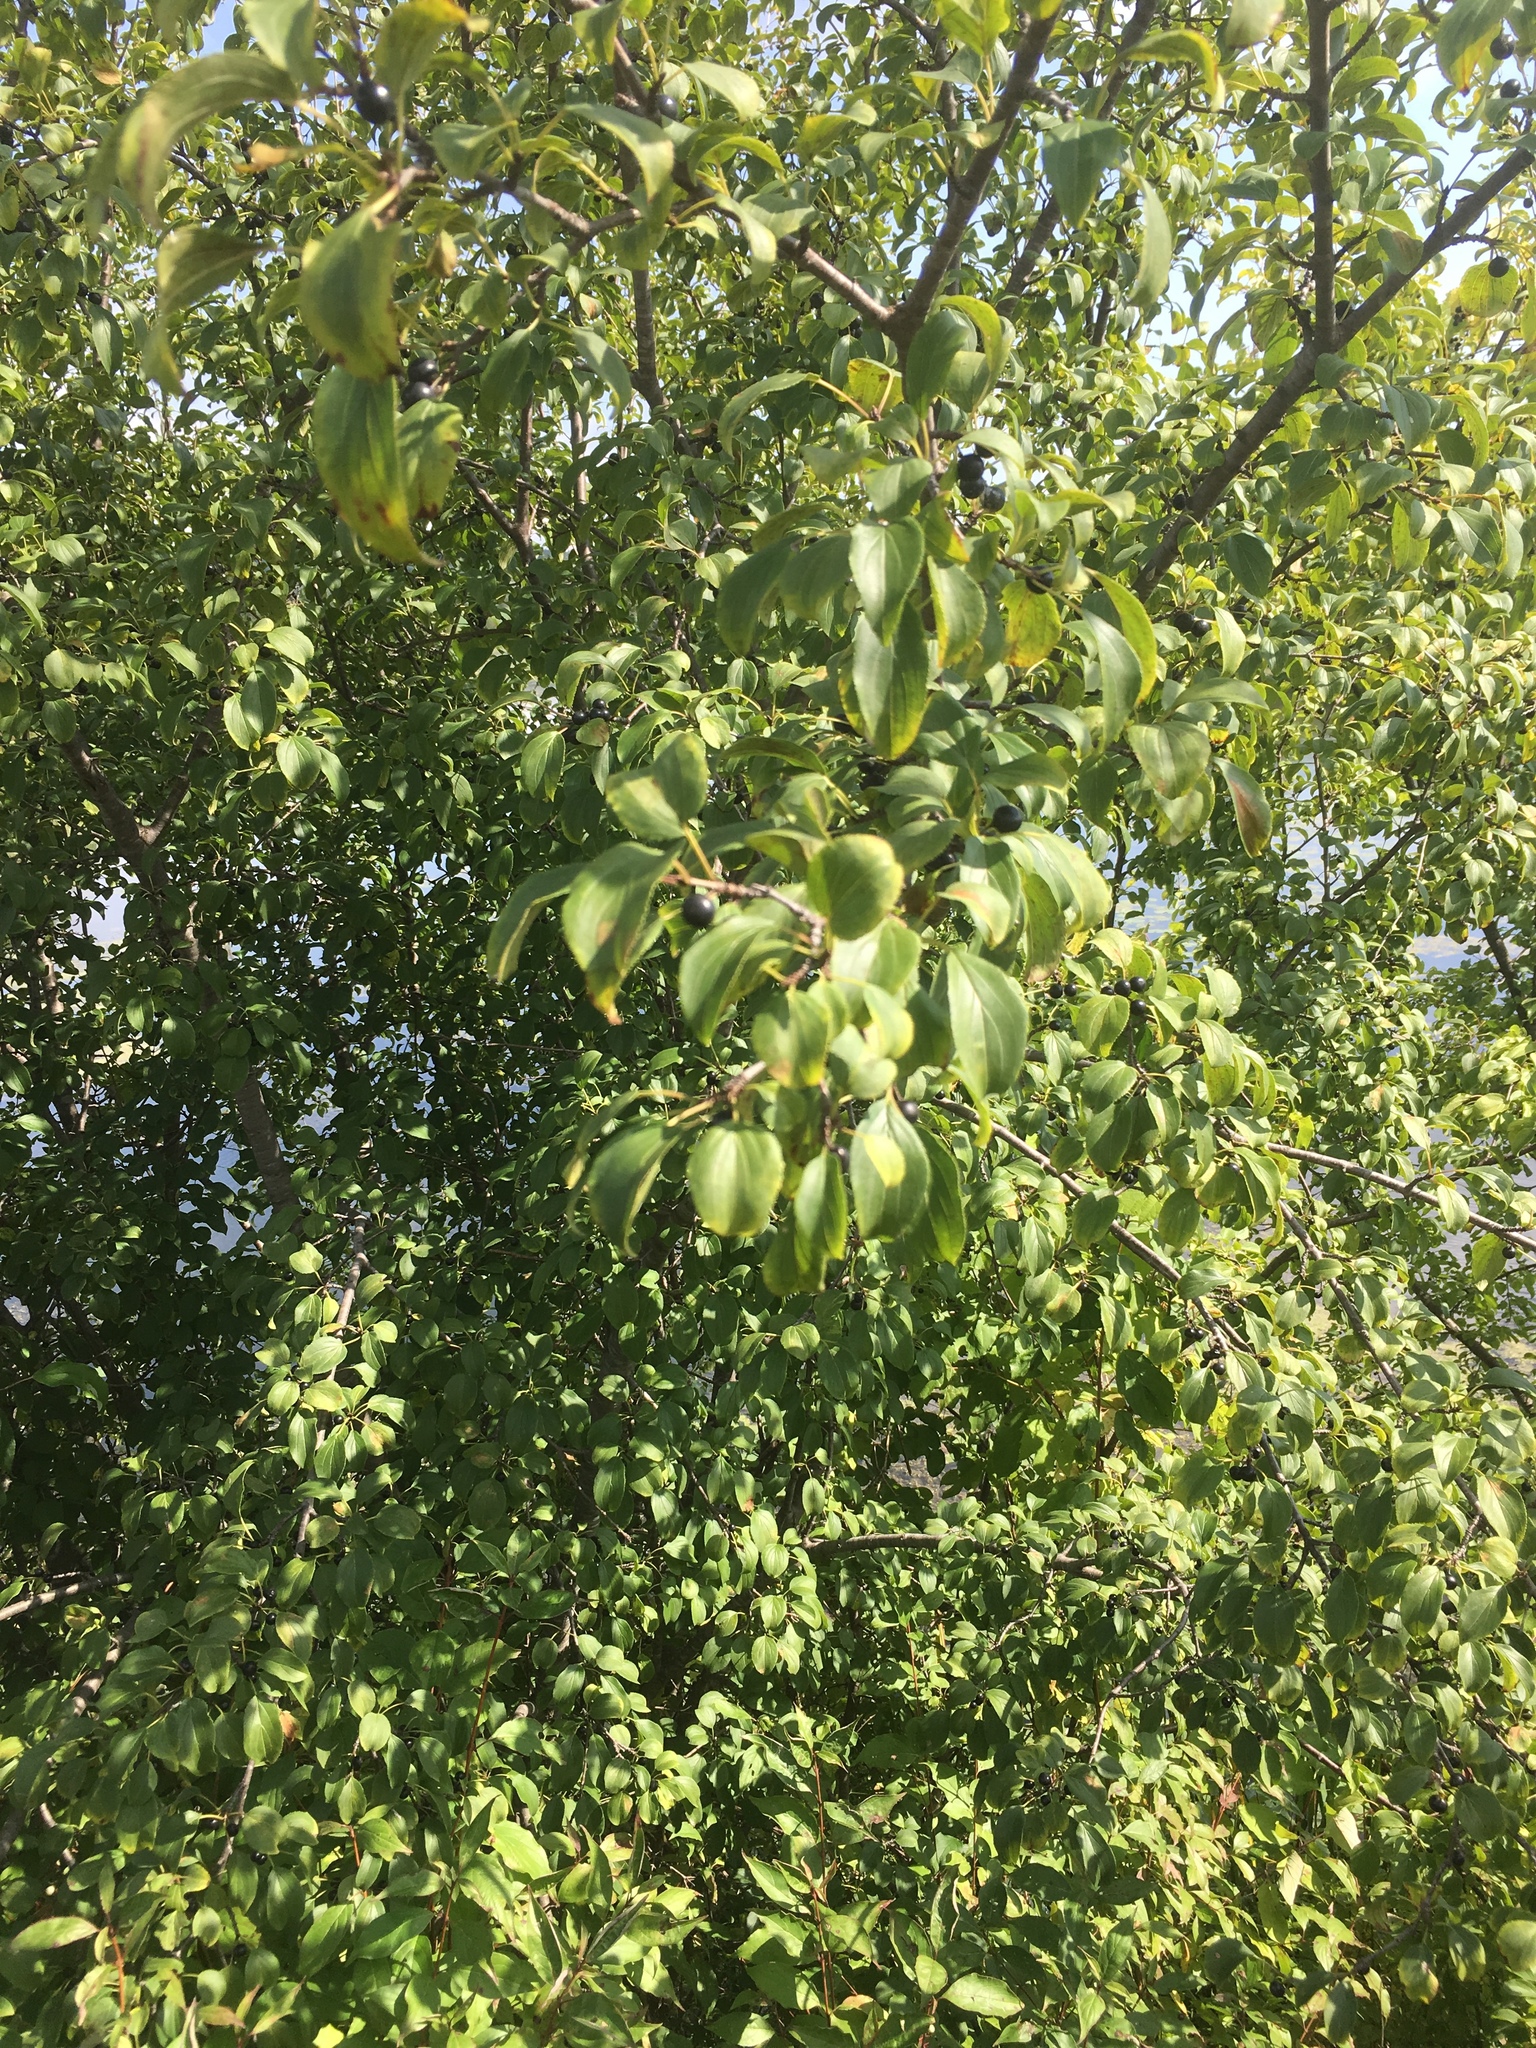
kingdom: Plantae
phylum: Tracheophyta
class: Magnoliopsida
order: Rosales
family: Rhamnaceae
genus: Rhamnus
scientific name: Rhamnus cathartica
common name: Common buckthorn
